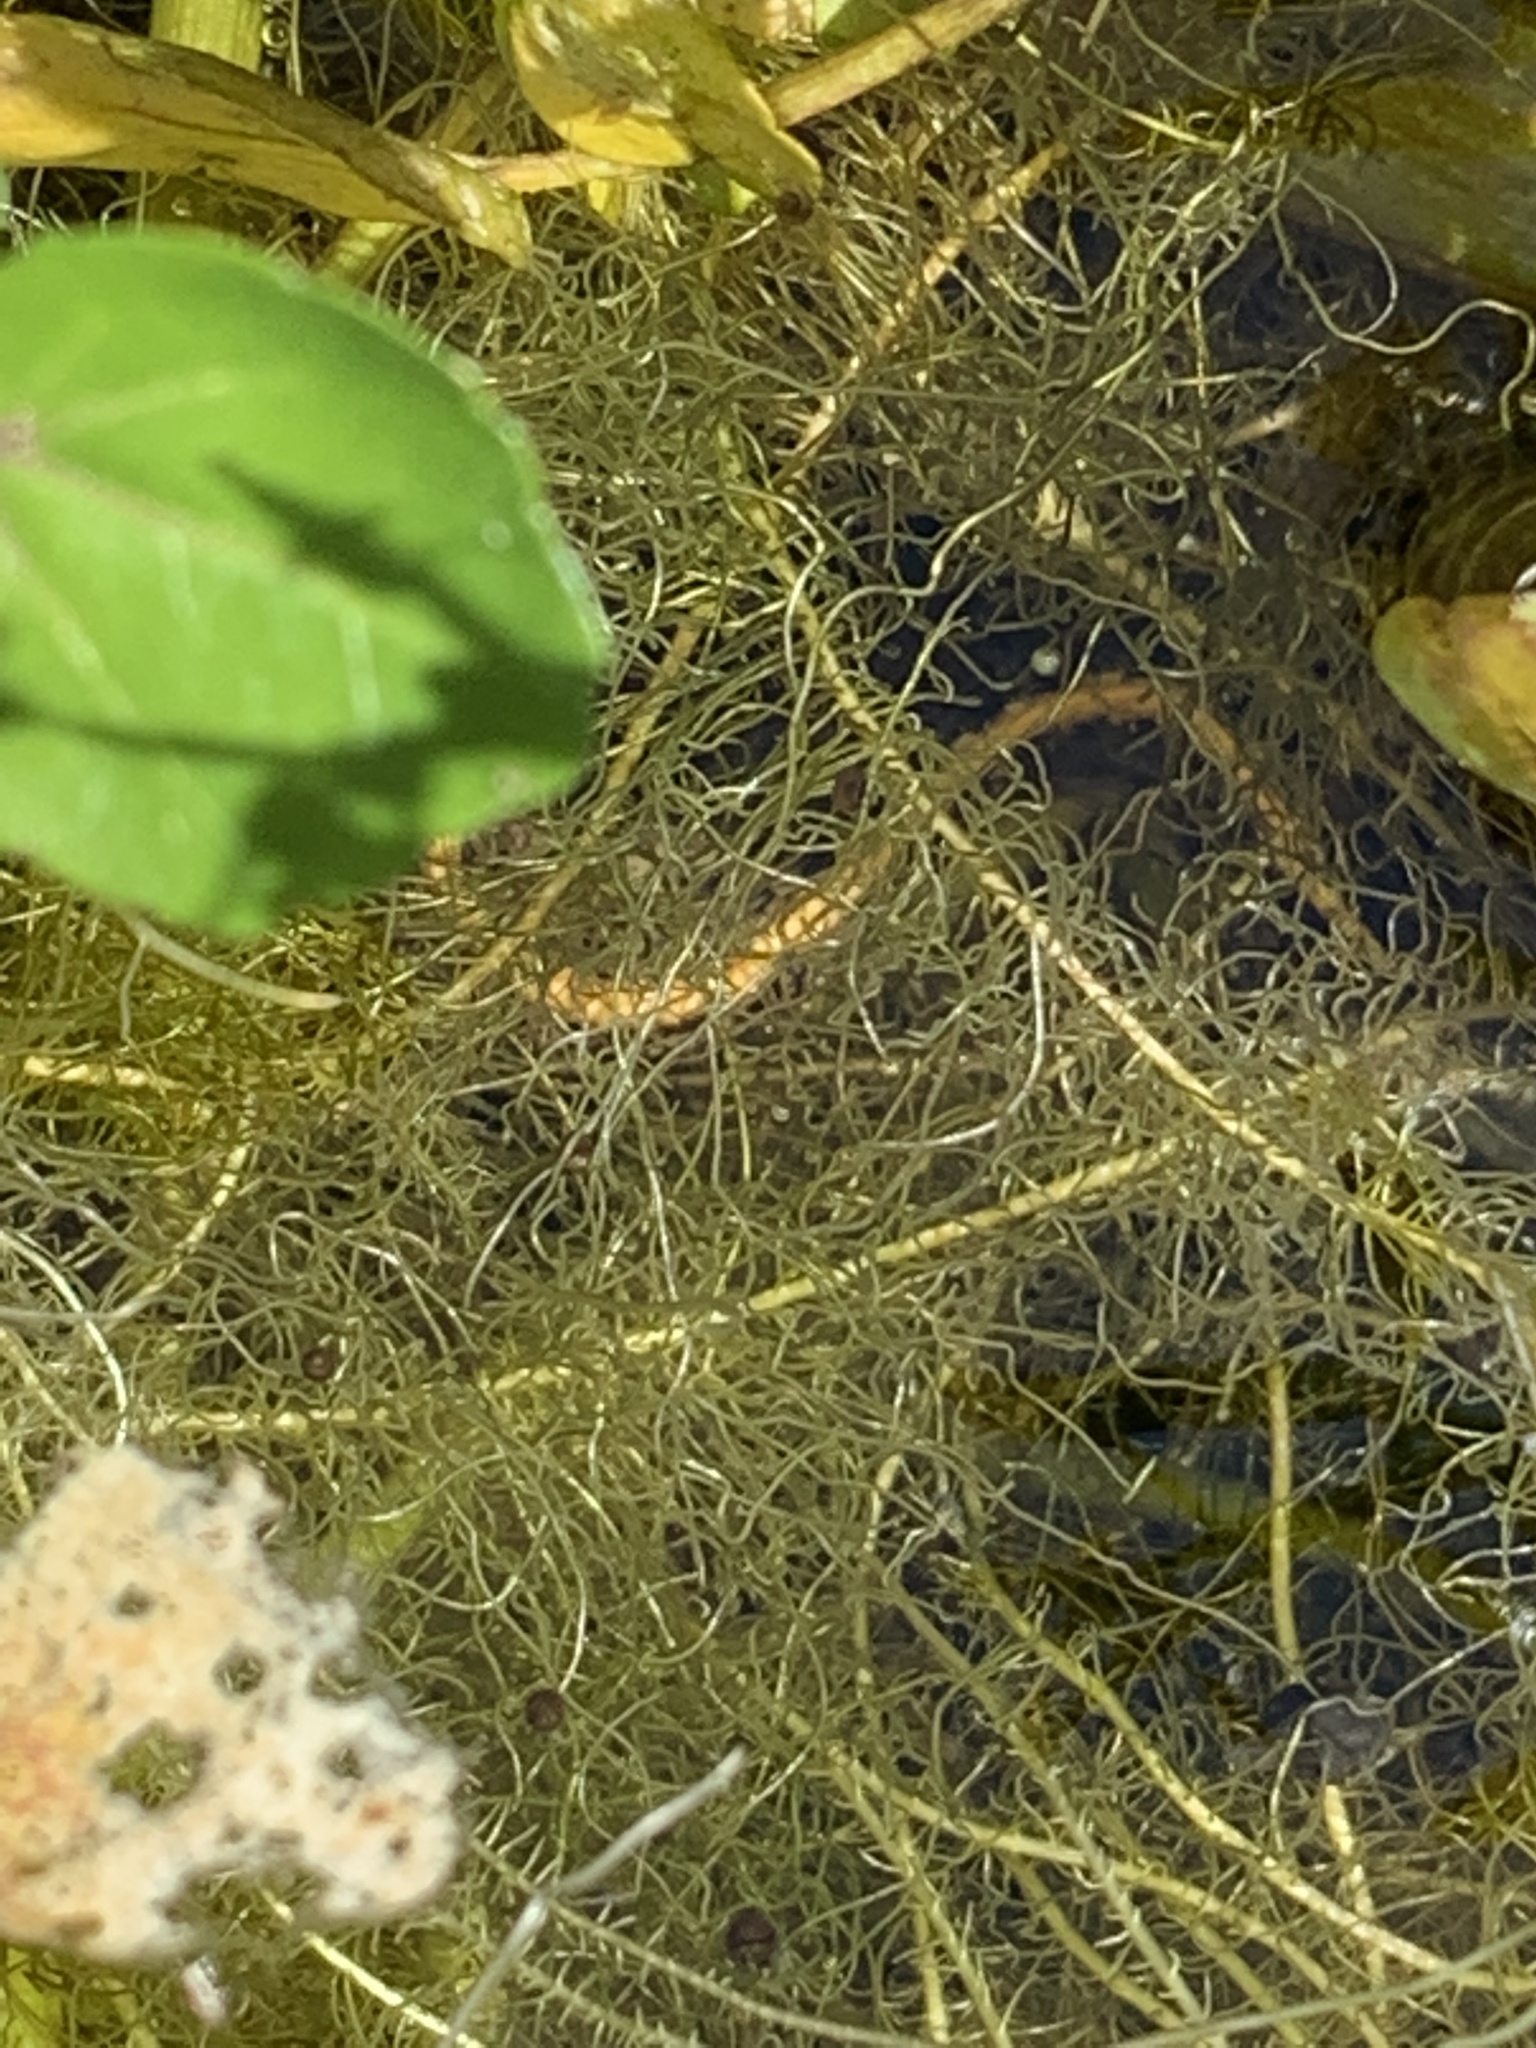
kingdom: Animalia
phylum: Chordata
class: Squamata
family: Colubridae
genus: Thamnophis
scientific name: Thamnophis atratus
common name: Pacific coast aquatic garter snake
